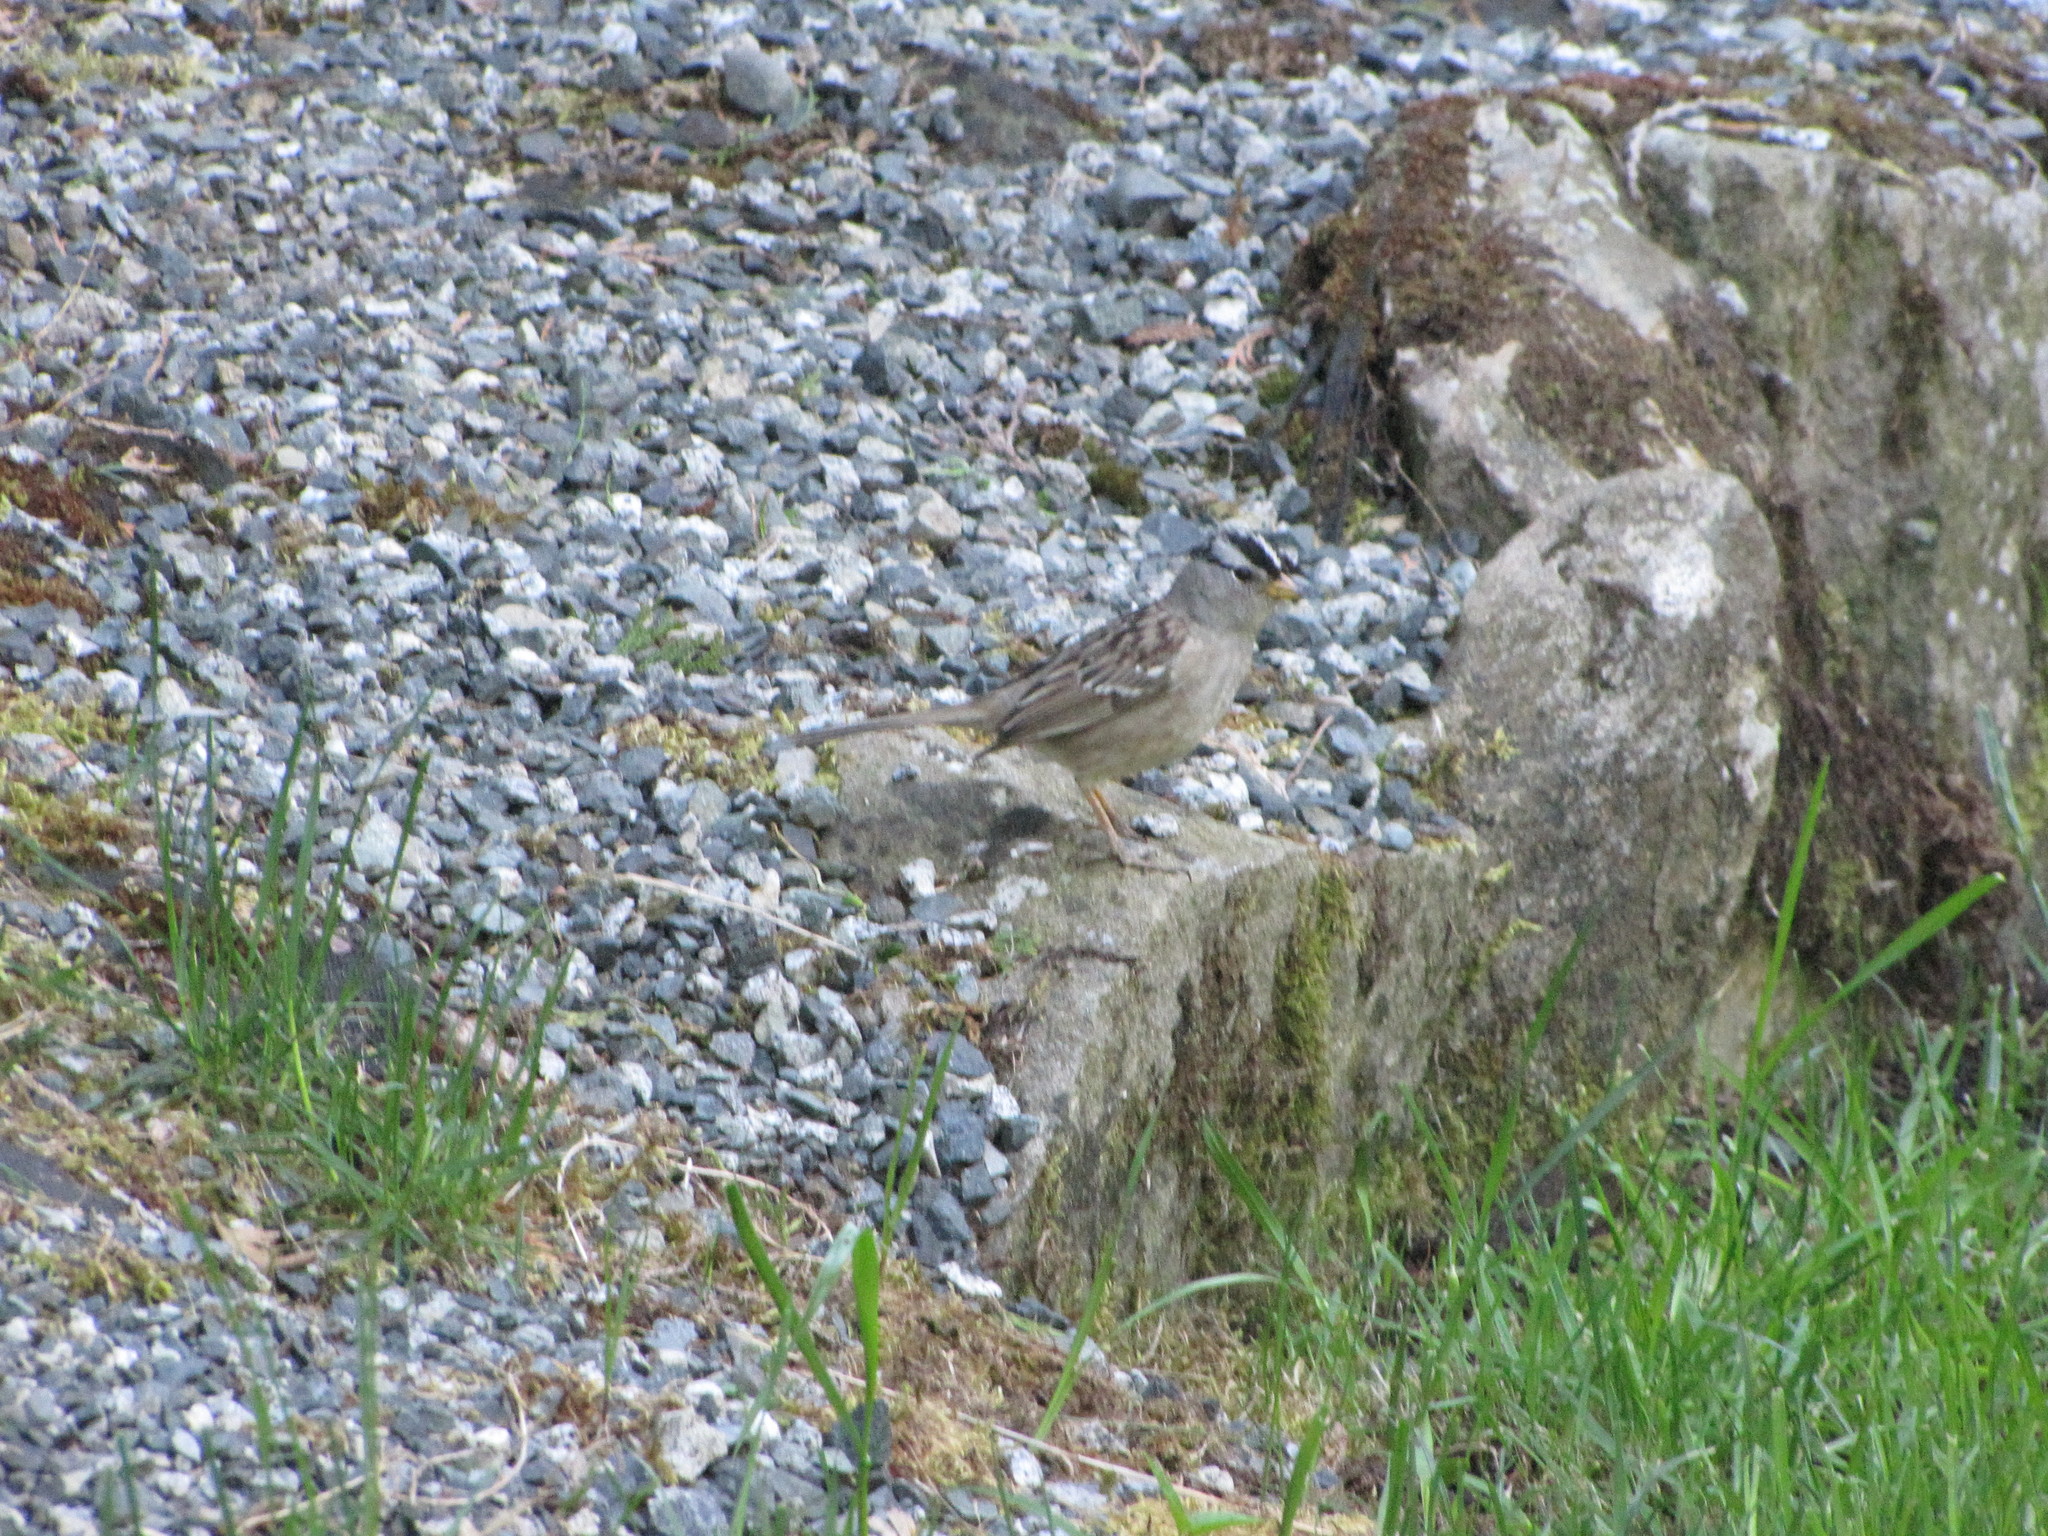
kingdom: Animalia
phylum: Chordata
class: Aves
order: Passeriformes
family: Passerellidae
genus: Zonotrichia
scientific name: Zonotrichia leucophrys
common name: White-crowned sparrow
